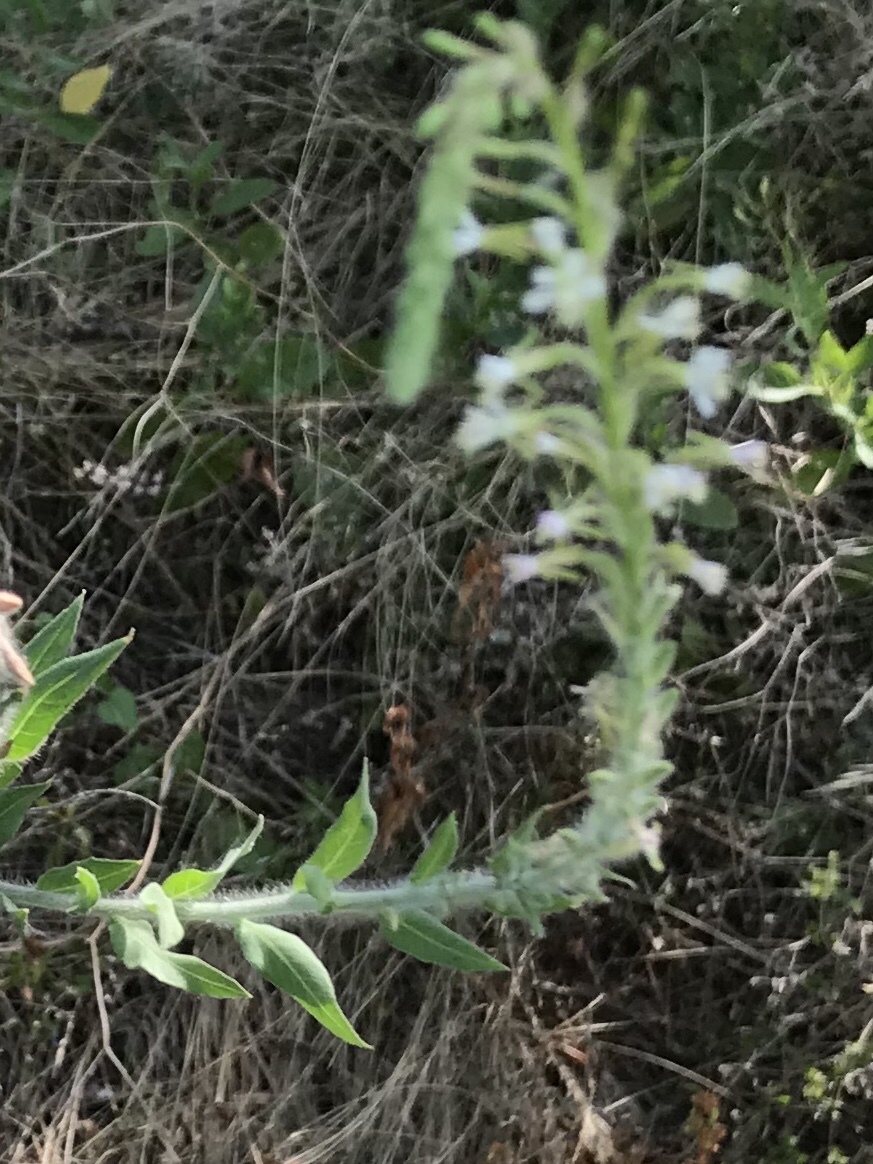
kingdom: Plantae
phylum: Tracheophyta
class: Magnoliopsida
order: Myrtales
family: Onagraceae
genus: Oenothera
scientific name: Oenothera curtiflora
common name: Velvetweed
